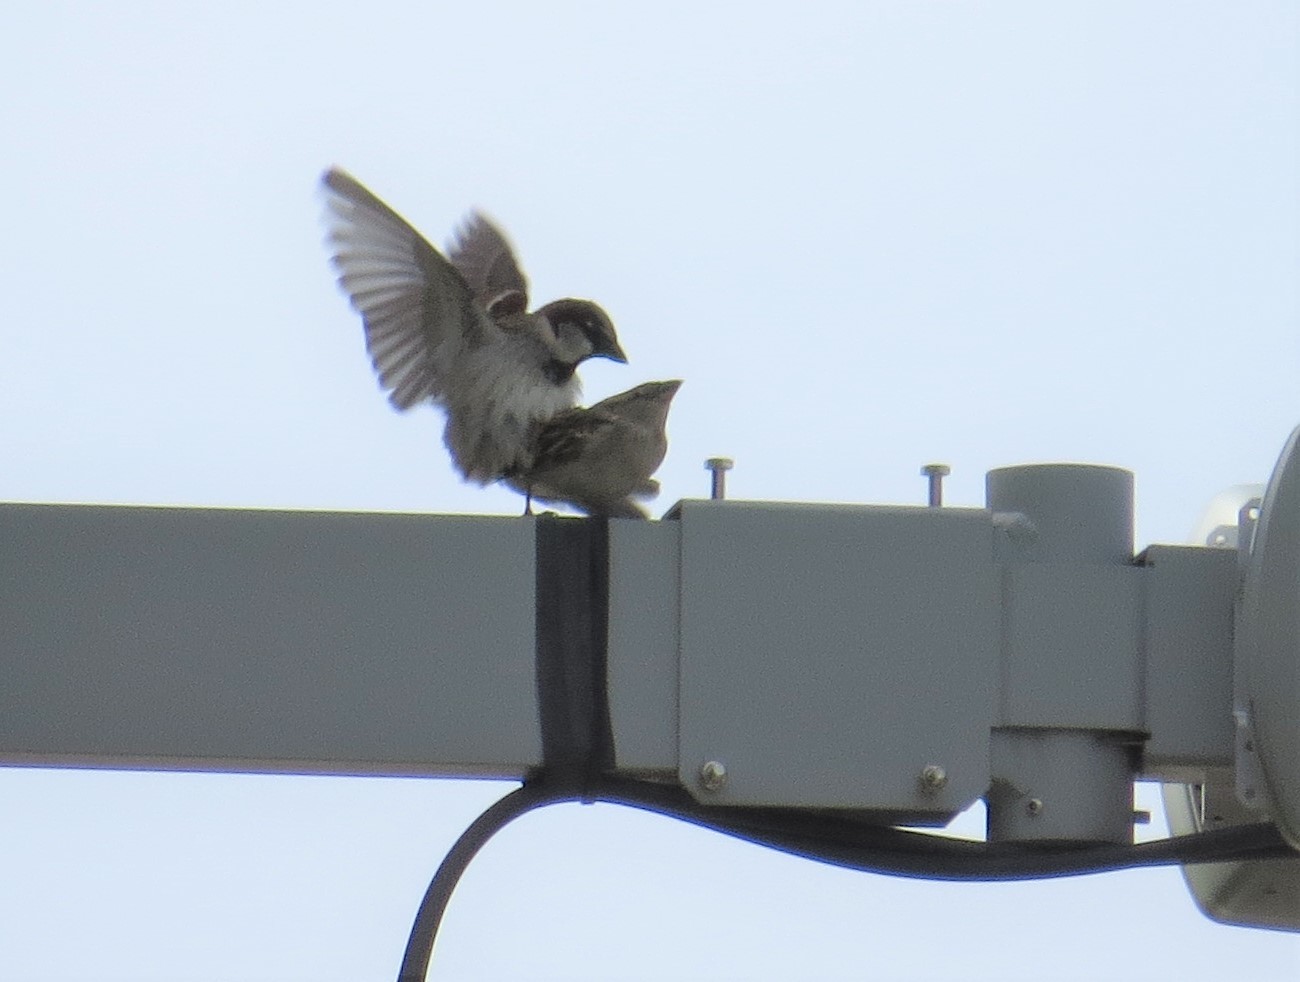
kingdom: Animalia
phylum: Chordata
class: Aves
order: Passeriformes
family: Passeridae
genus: Passer
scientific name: Passer domesticus
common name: House sparrow
